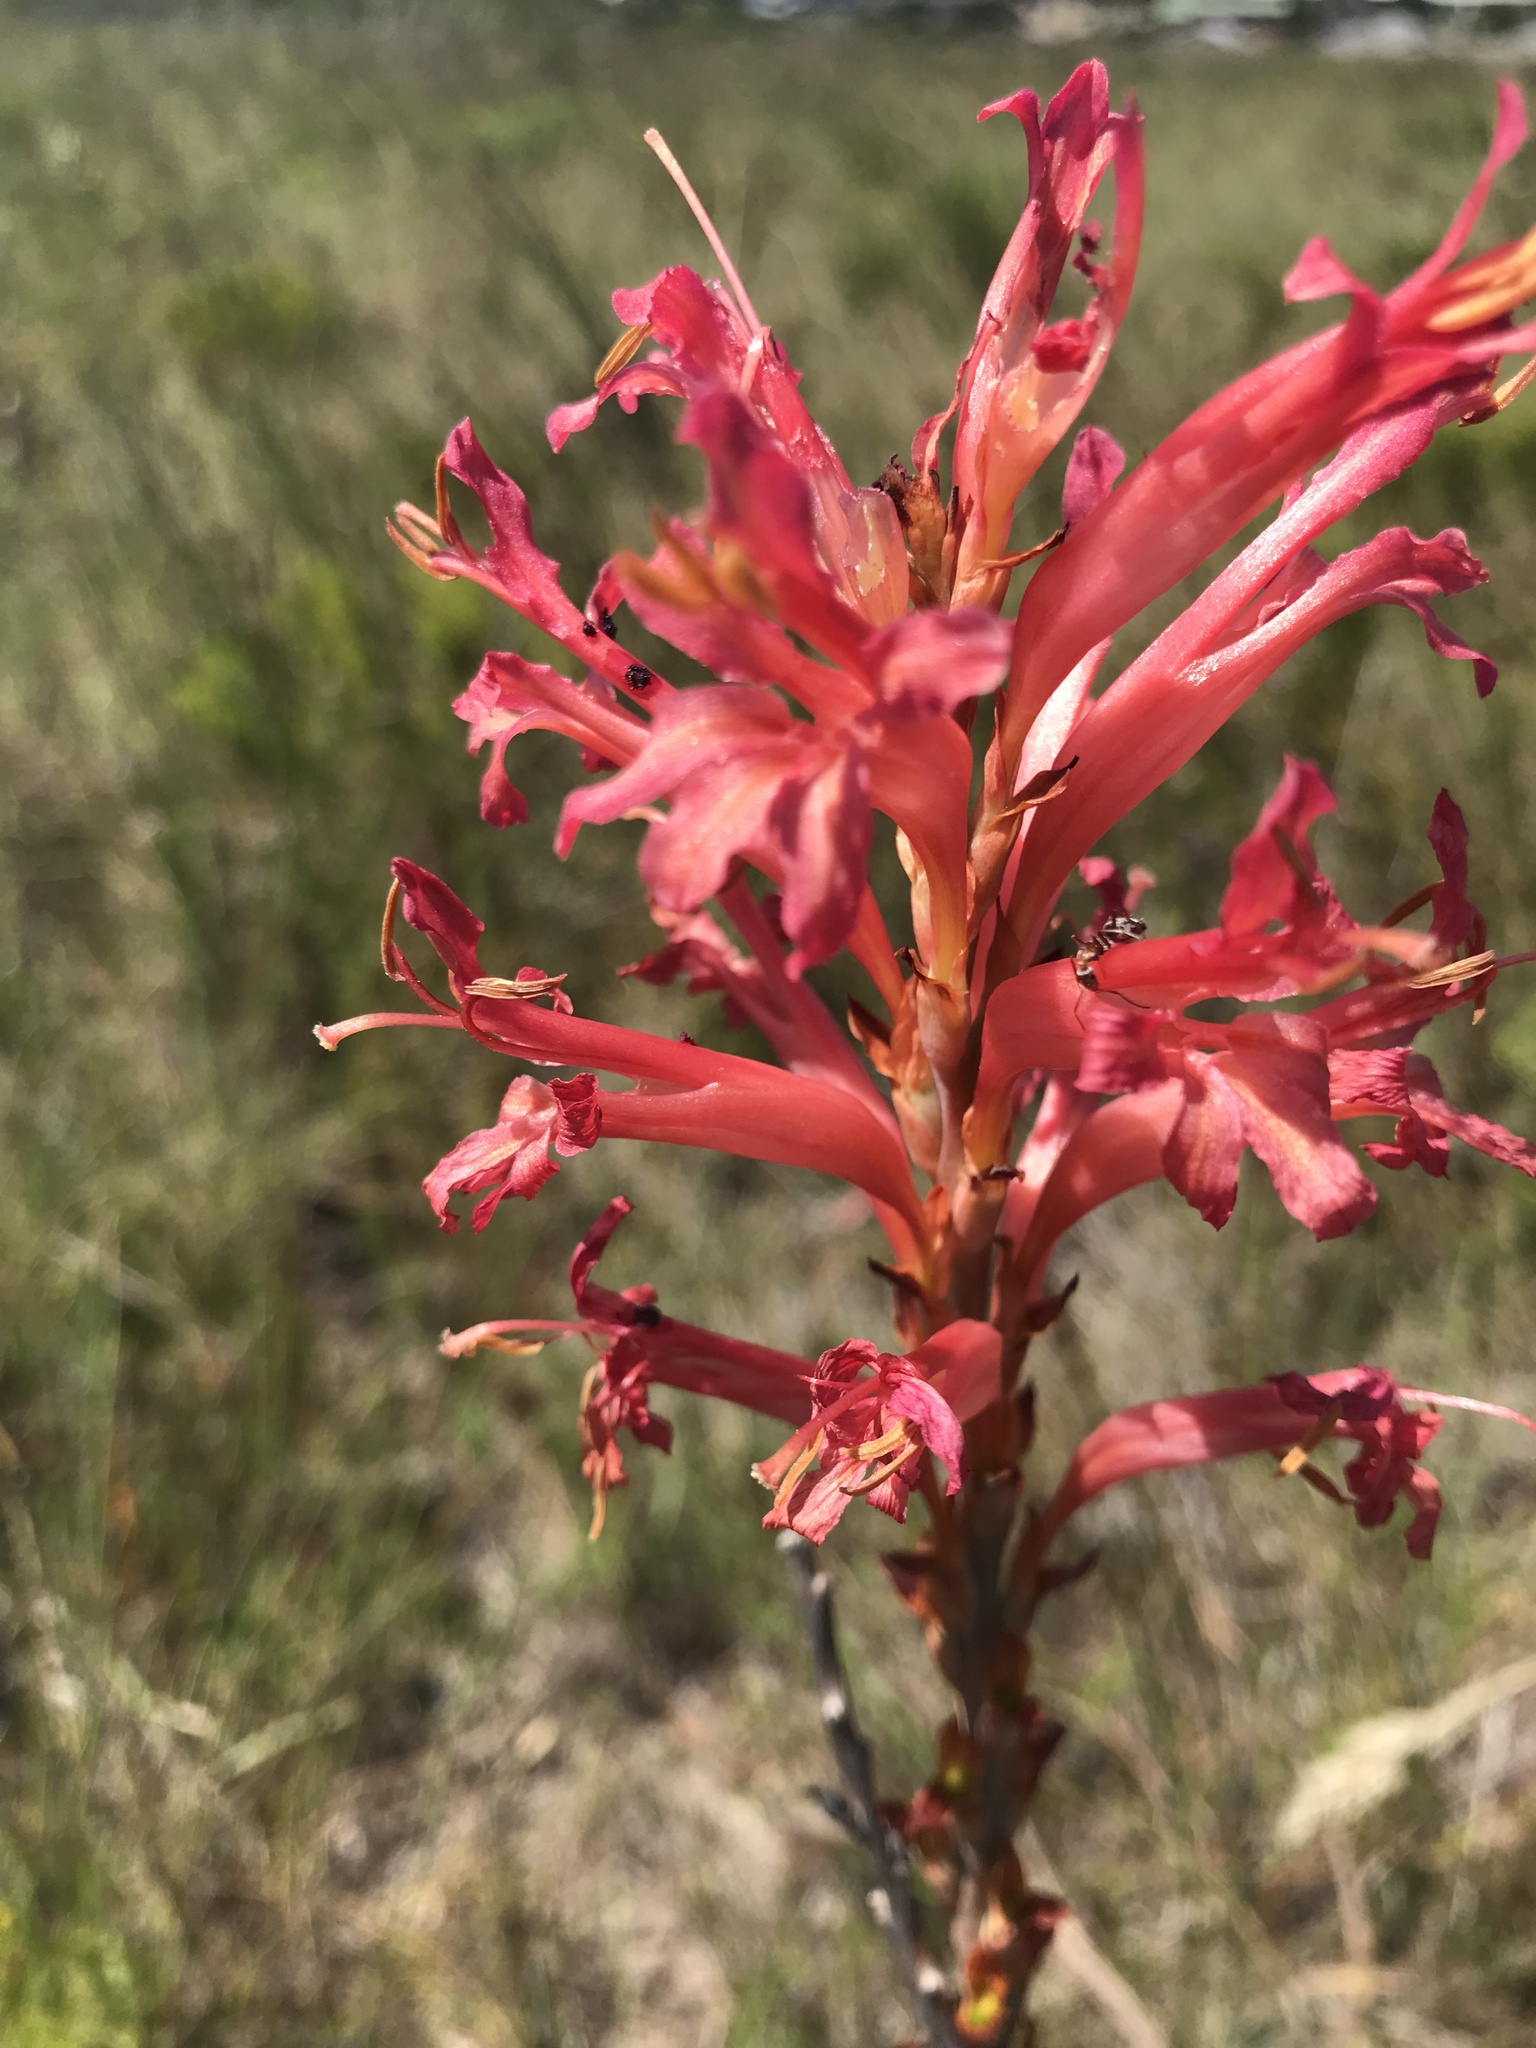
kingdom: Plantae
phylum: Tracheophyta
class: Liliopsida
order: Asparagales
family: Iridaceae
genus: Tritoniopsis
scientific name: Tritoniopsis antholyza
